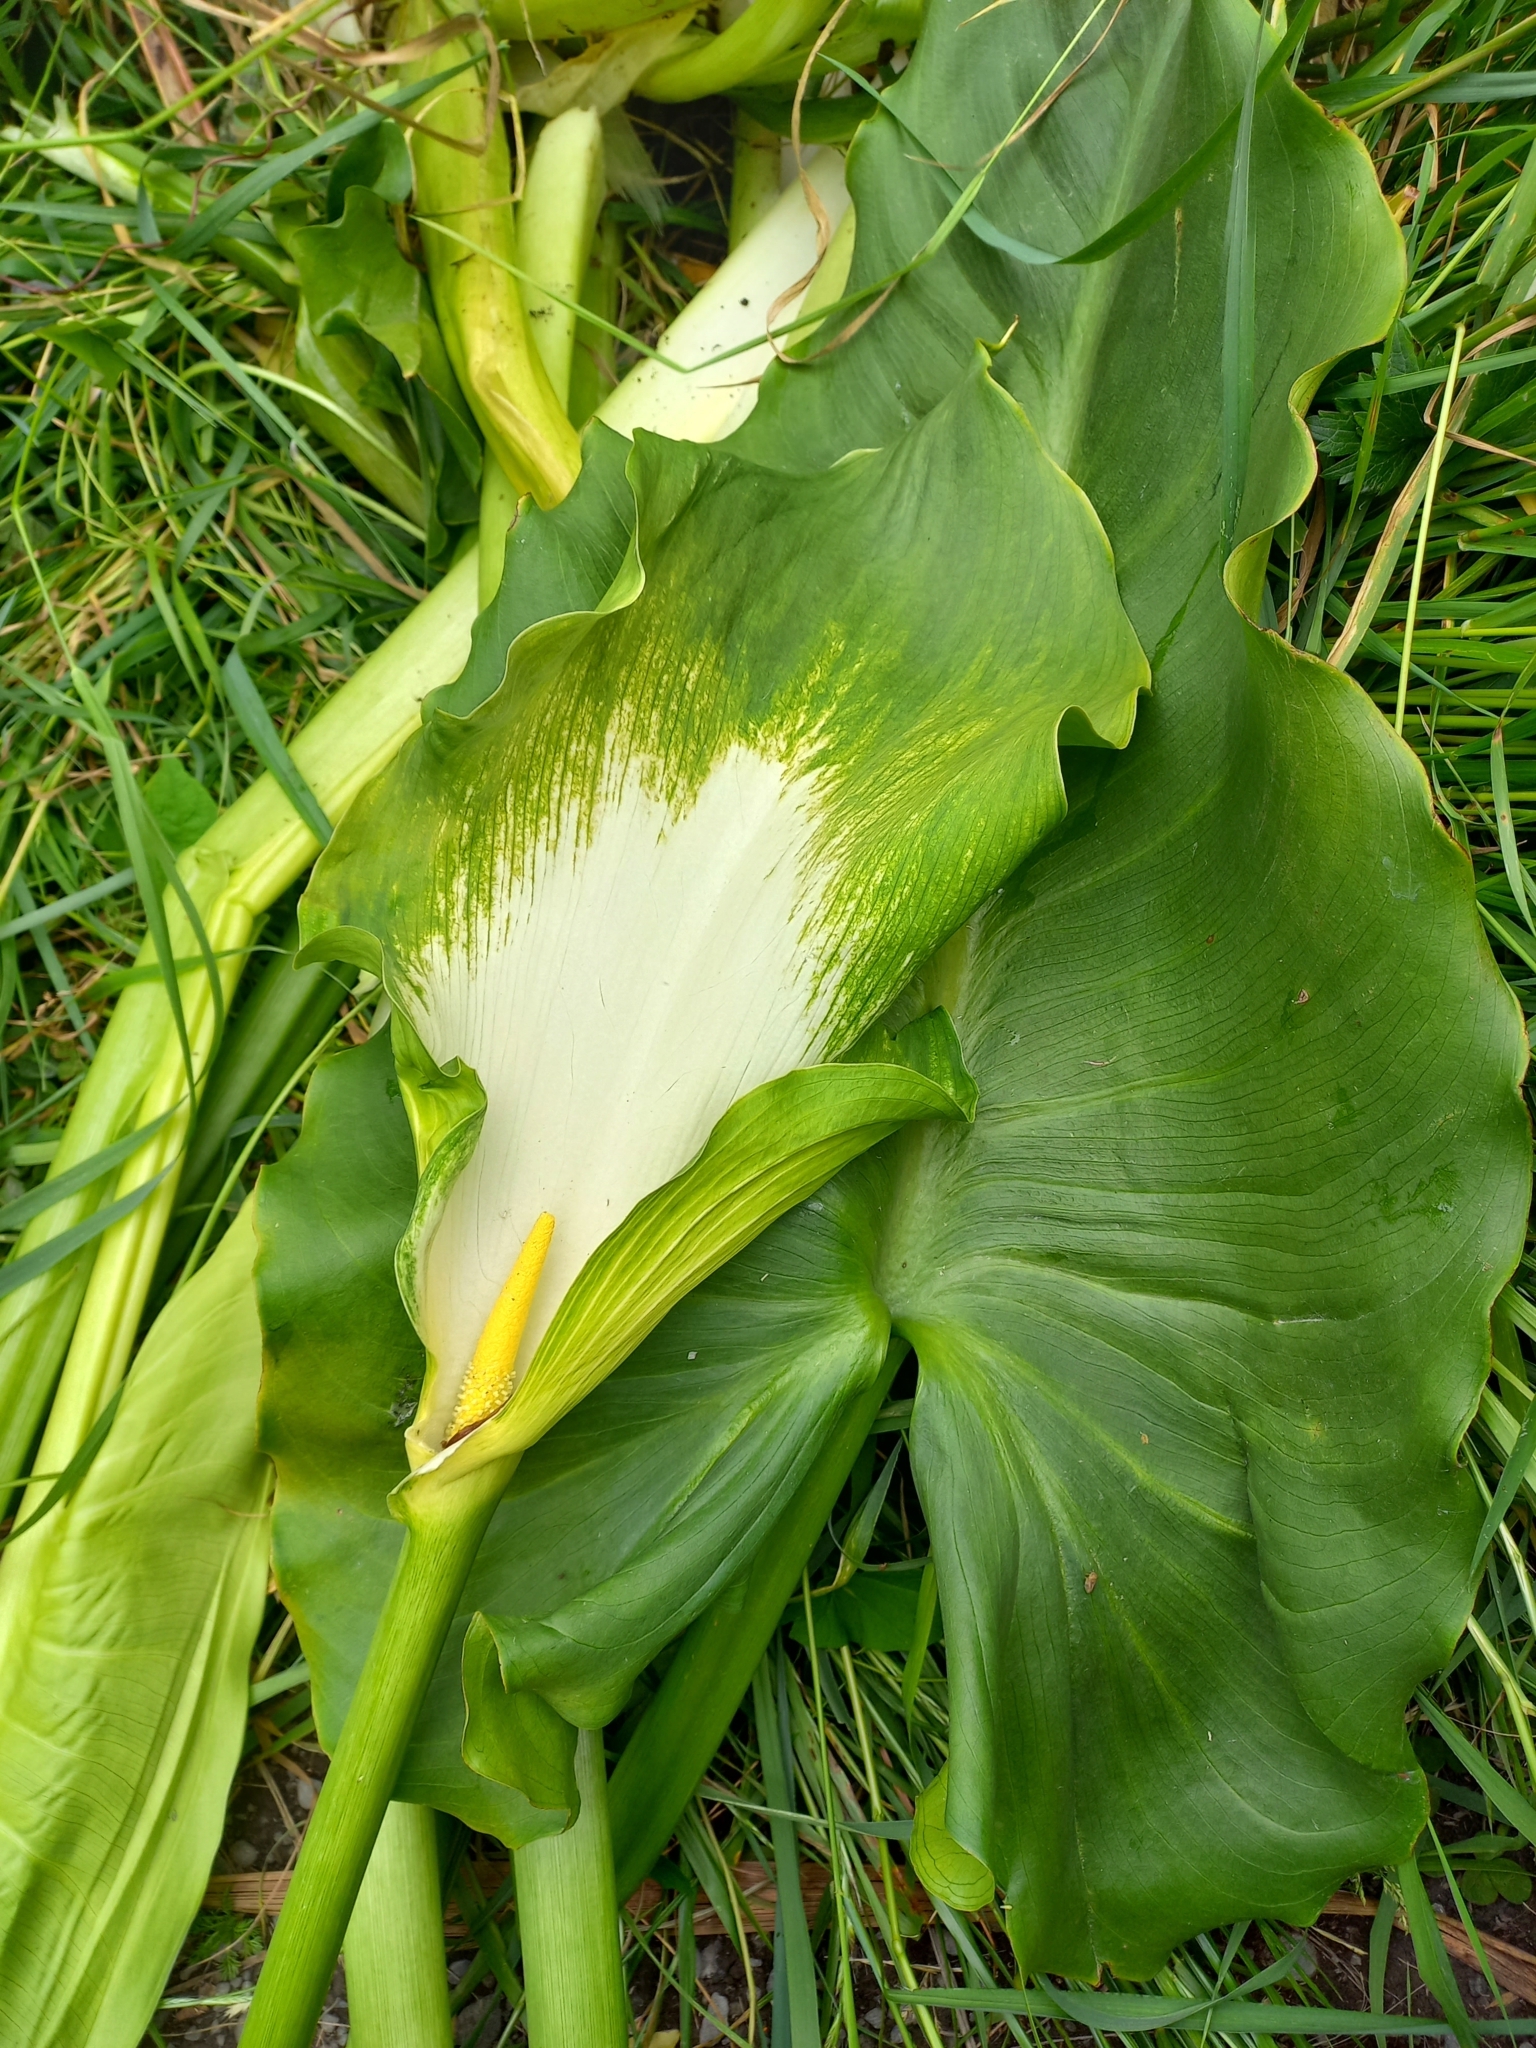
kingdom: Plantae
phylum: Tracheophyta
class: Liliopsida
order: Alismatales
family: Araceae
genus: Zantedeschia
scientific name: Zantedeschia aethiopica
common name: Altar-lily
